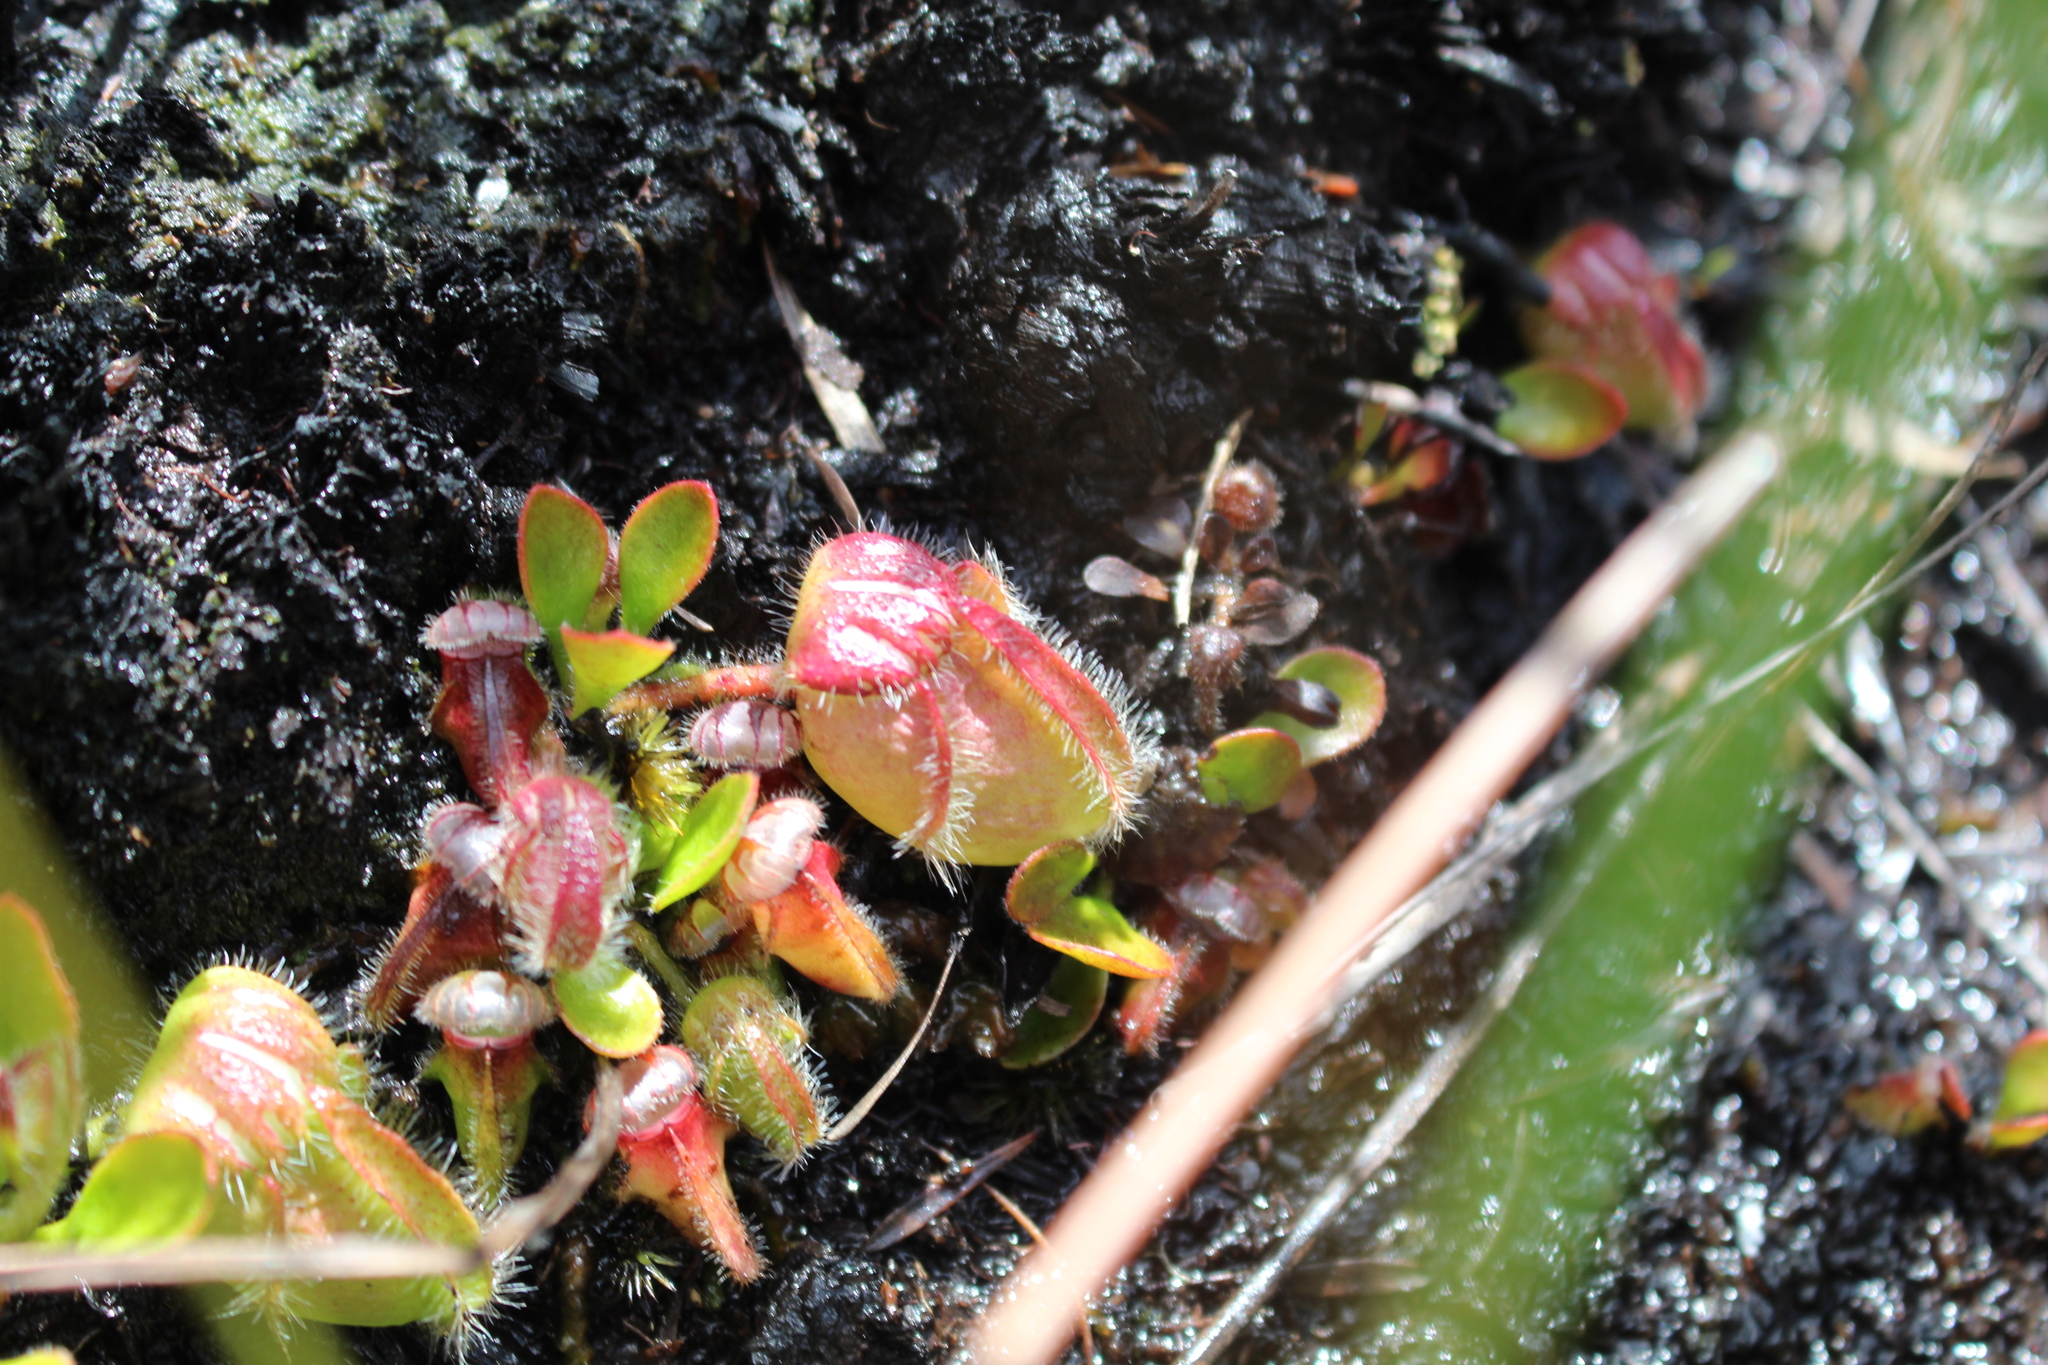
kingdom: Plantae
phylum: Tracheophyta
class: Magnoliopsida
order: Oxalidales
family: Cephalotaceae
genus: Cephalotus
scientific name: Cephalotus follicularis
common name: Australian pitcher plant
